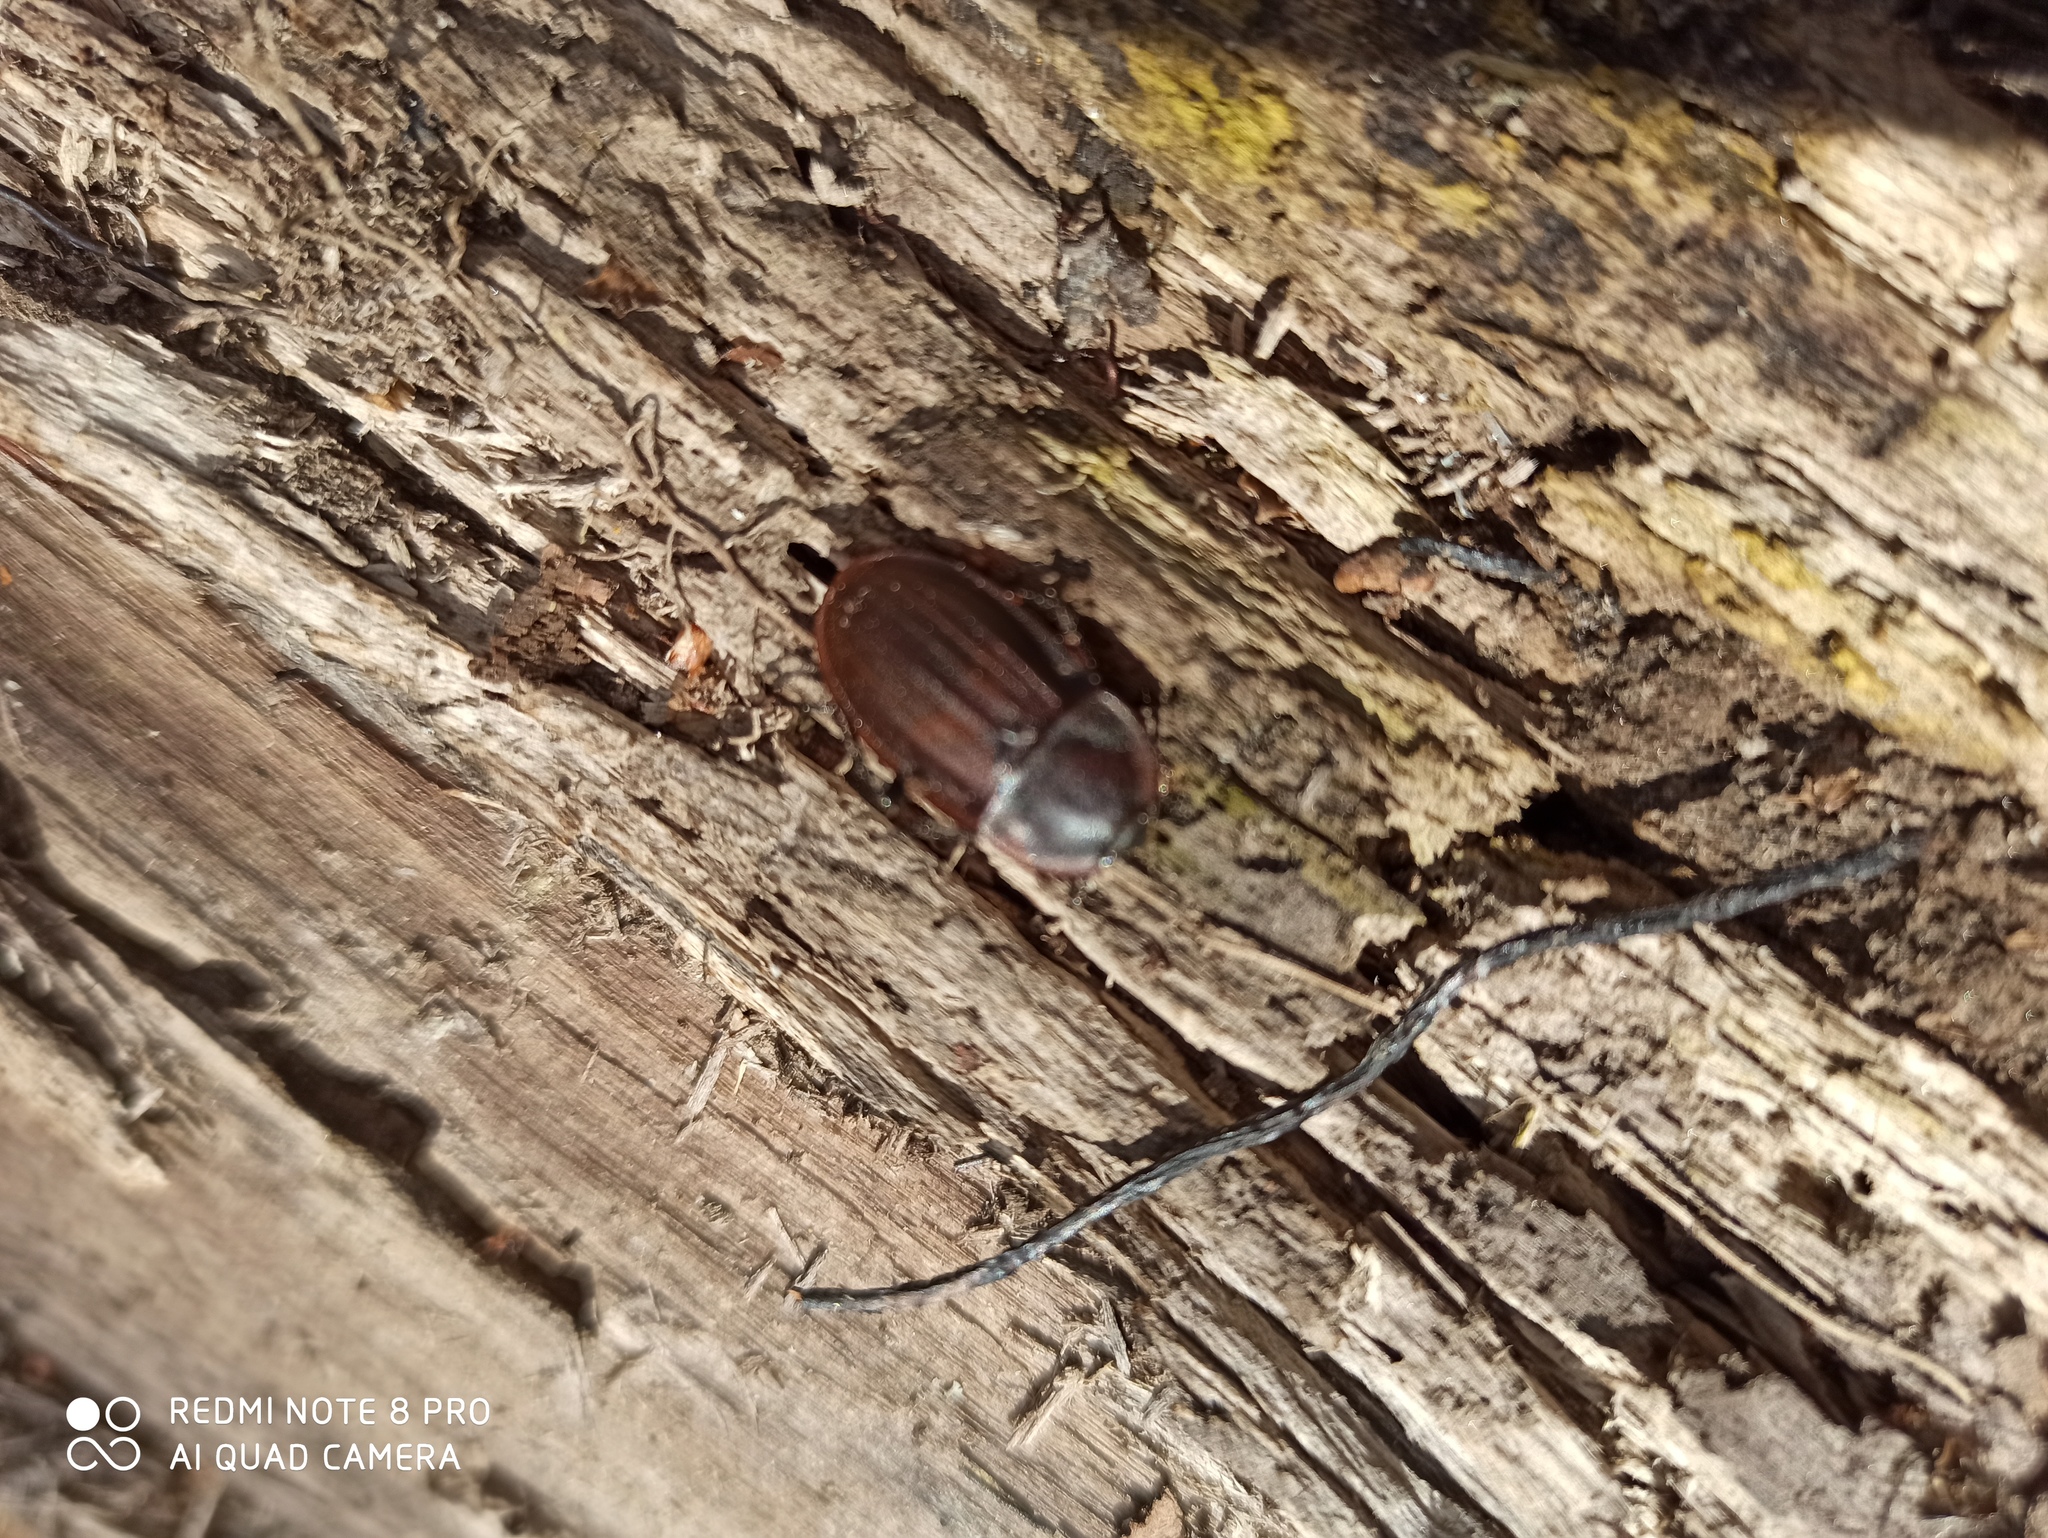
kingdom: Animalia
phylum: Arthropoda
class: Insecta
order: Coleoptera
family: Staphylinidae
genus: Silpha
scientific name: Silpha carinata
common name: Silphid beetle
